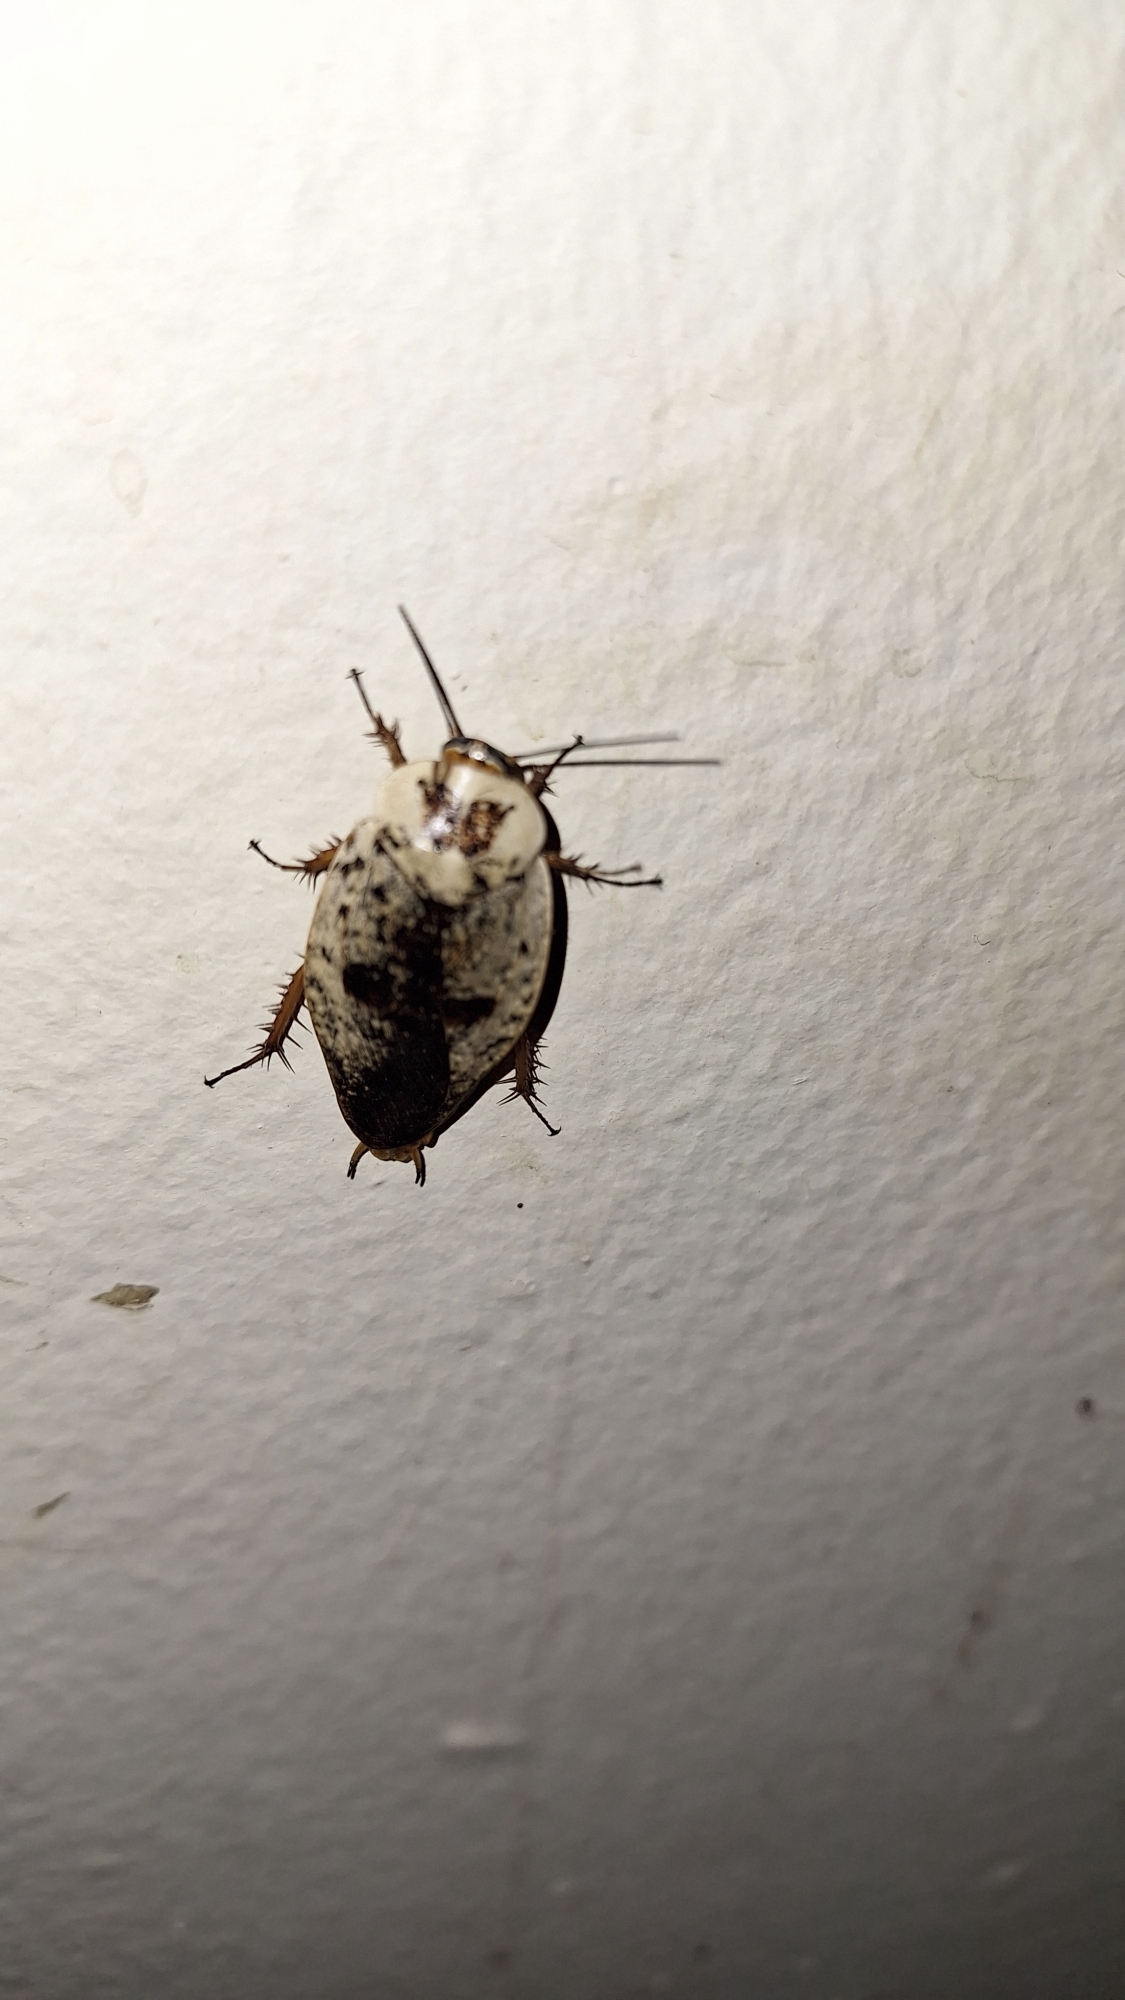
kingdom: Animalia
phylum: Arthropoda
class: Insecta
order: Blattodea
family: Blaberidae
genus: Gyna
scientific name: Gyna caffrorum
